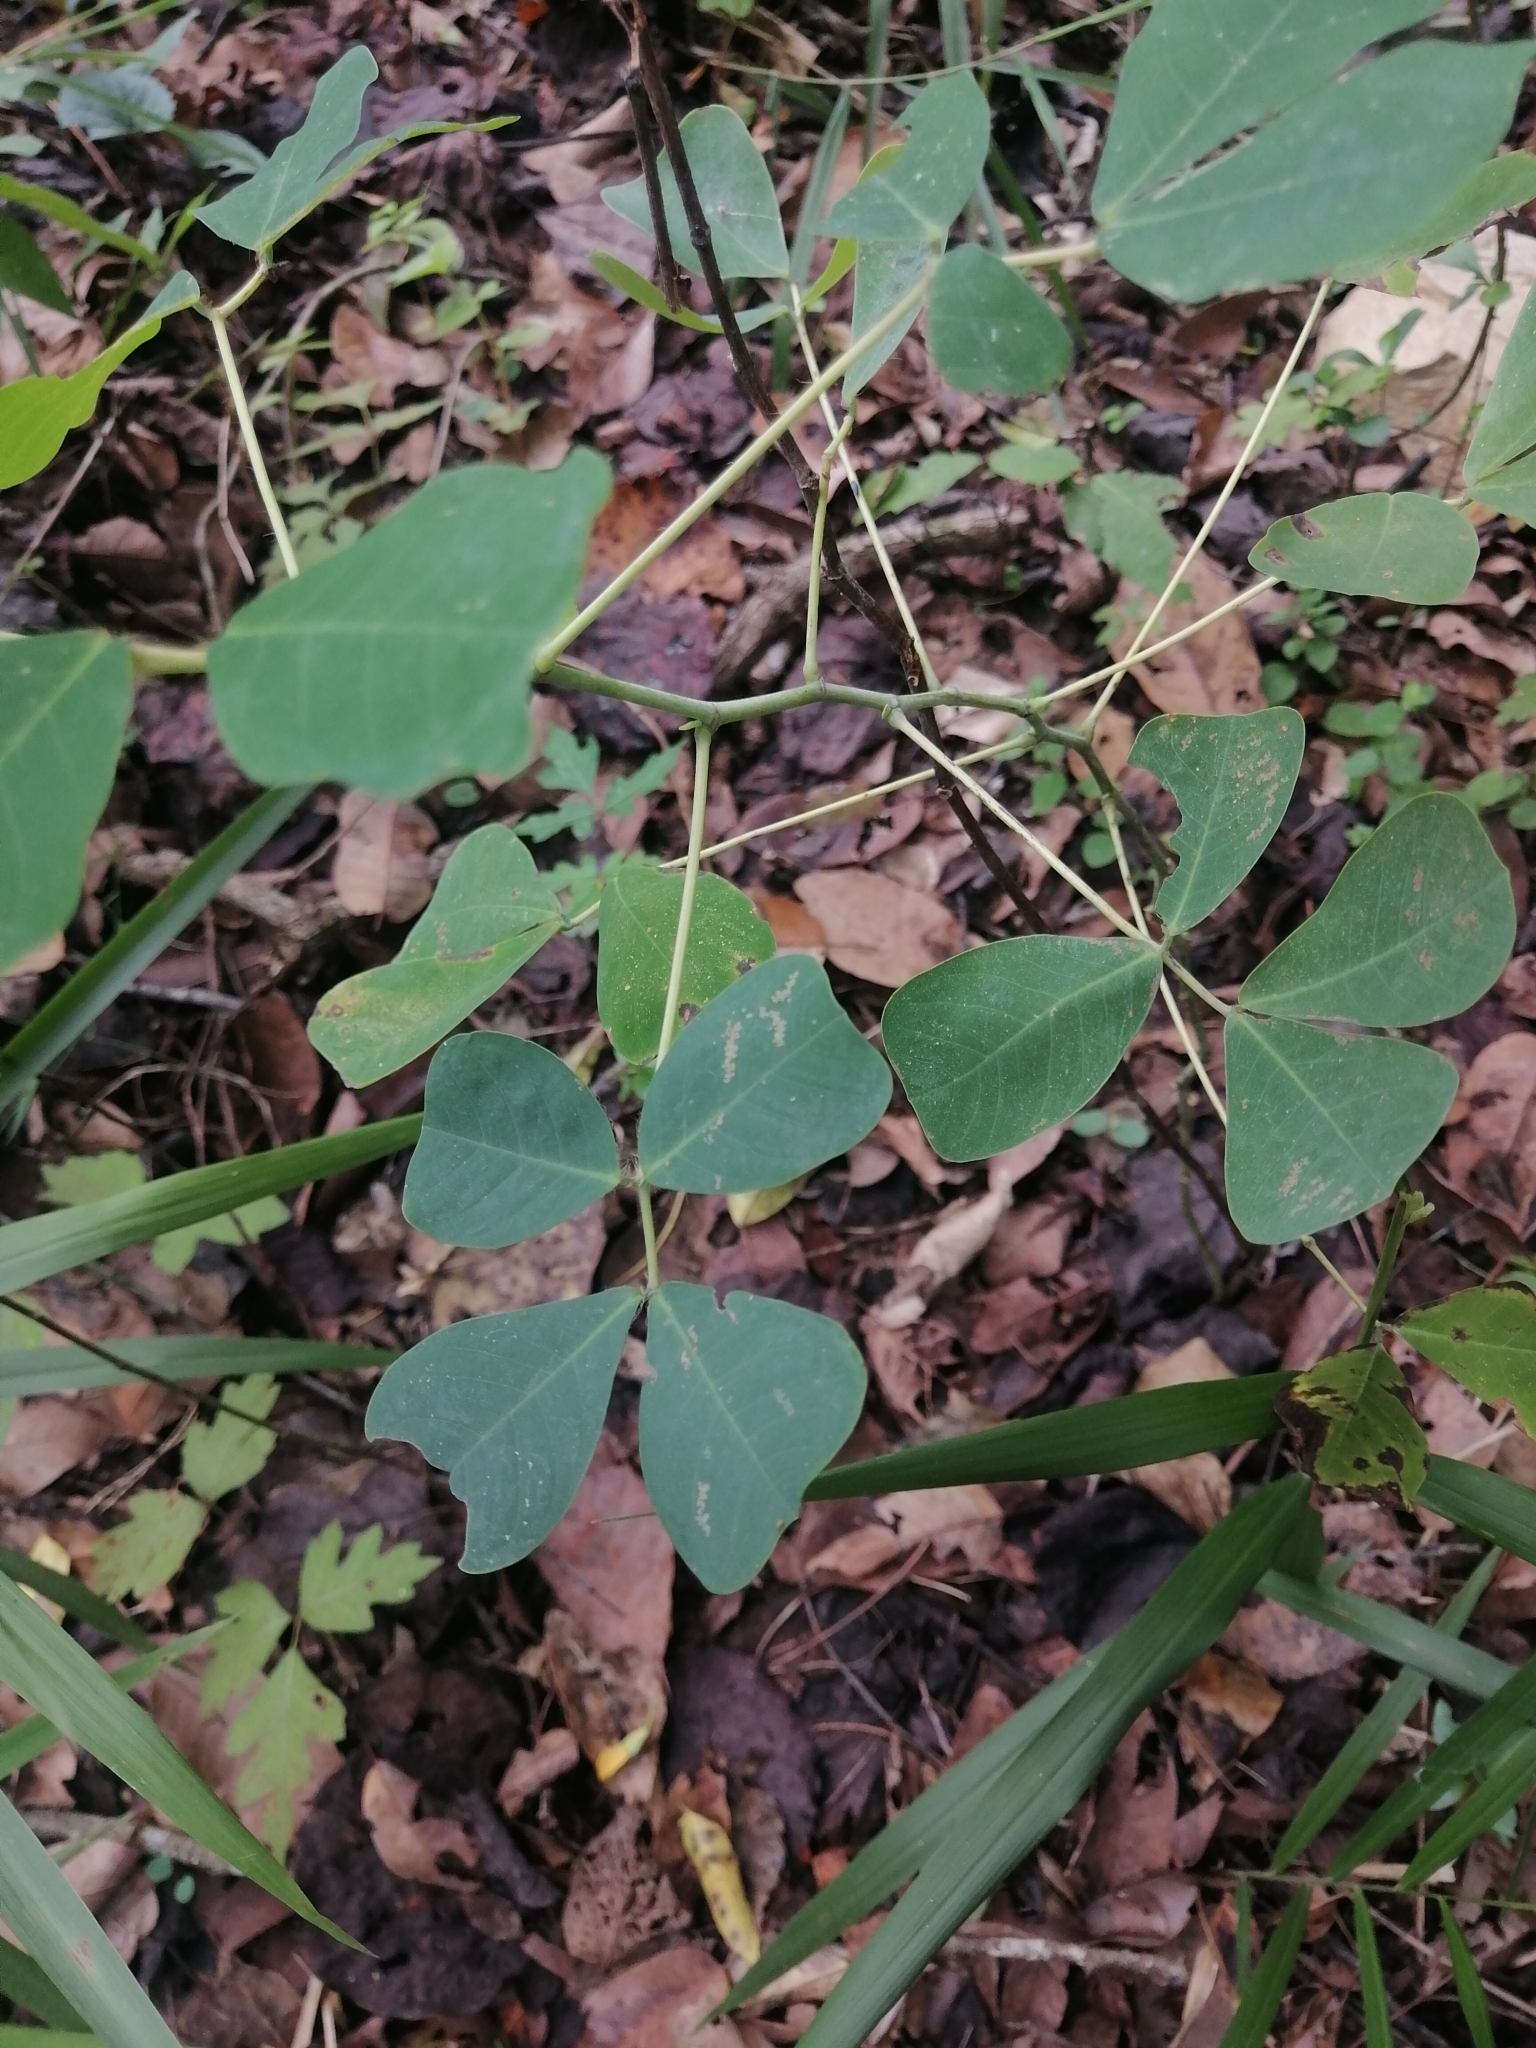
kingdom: Plantae
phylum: Tracheophyta
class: Magnoliopsida
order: Fabales
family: Fabaceae
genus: Amicia
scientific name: Amicia zygomeris
